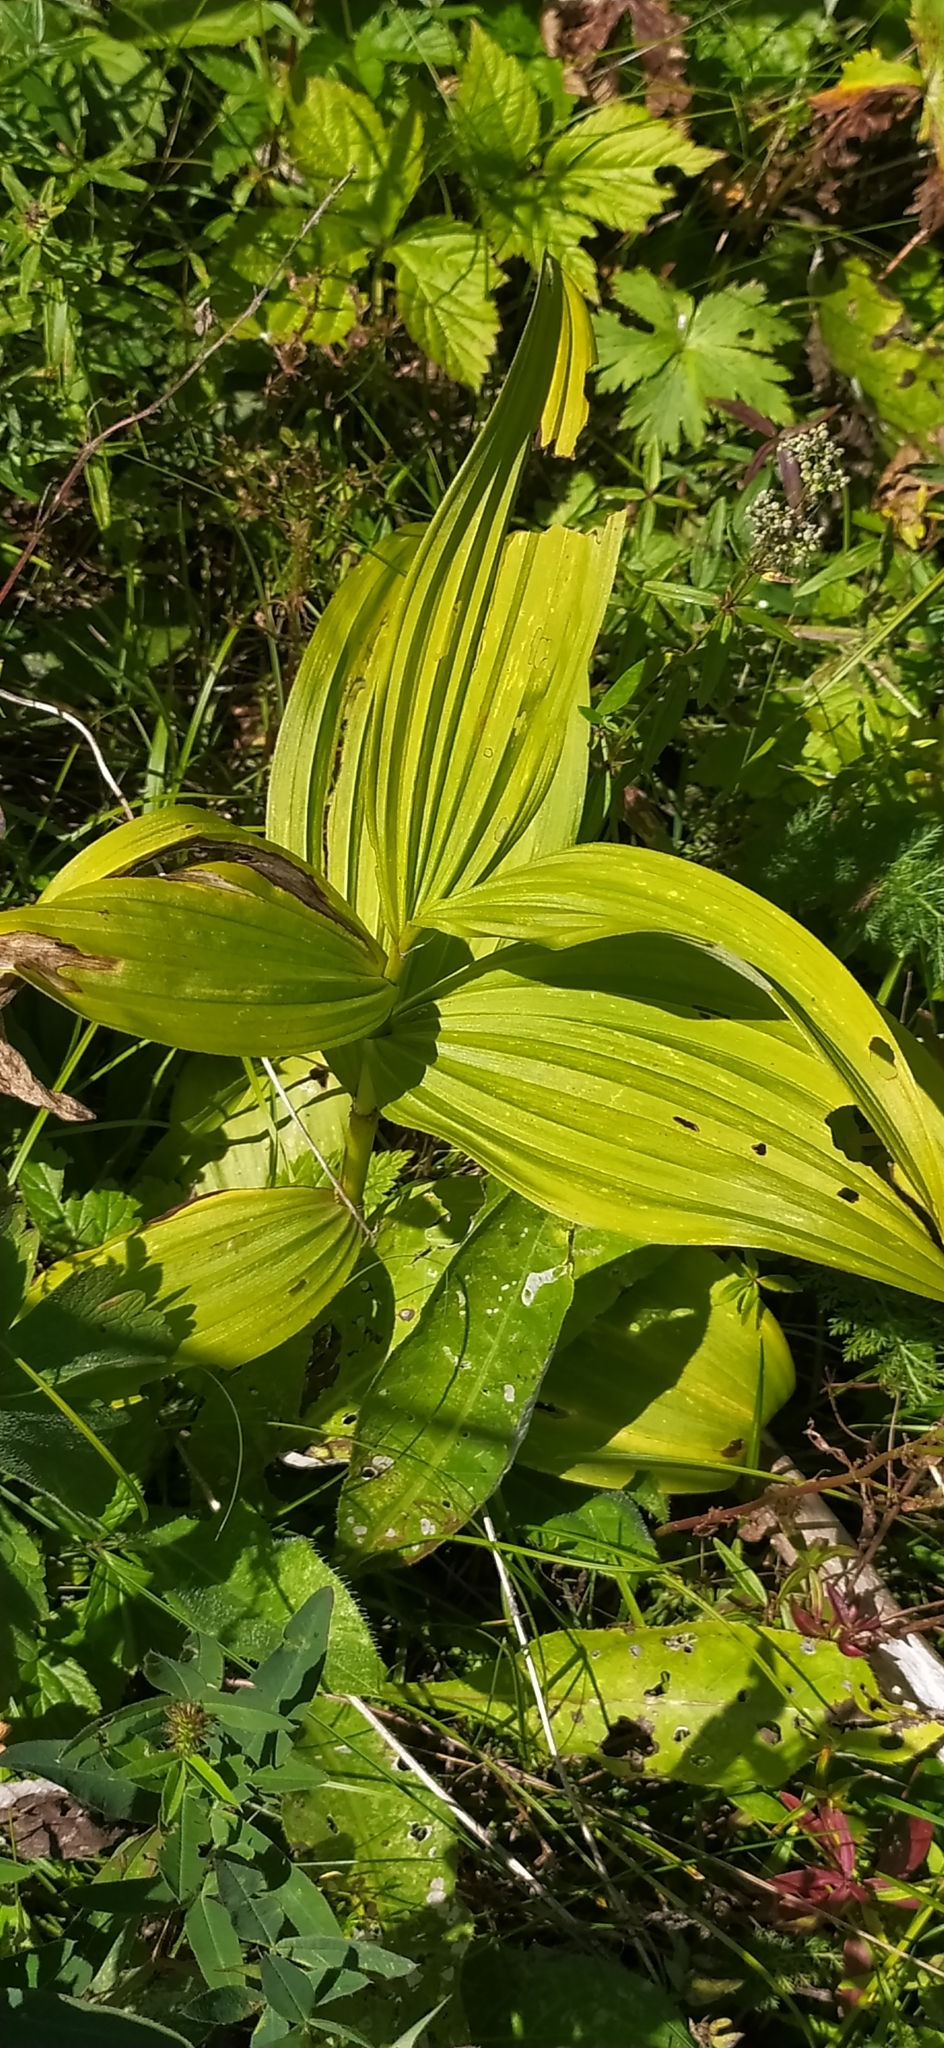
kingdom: Plantae
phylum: Tracheophyta
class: Liliopsida
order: Liliales
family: Melanthiaceae
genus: Veratrum
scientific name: Veratrum lobelianum
